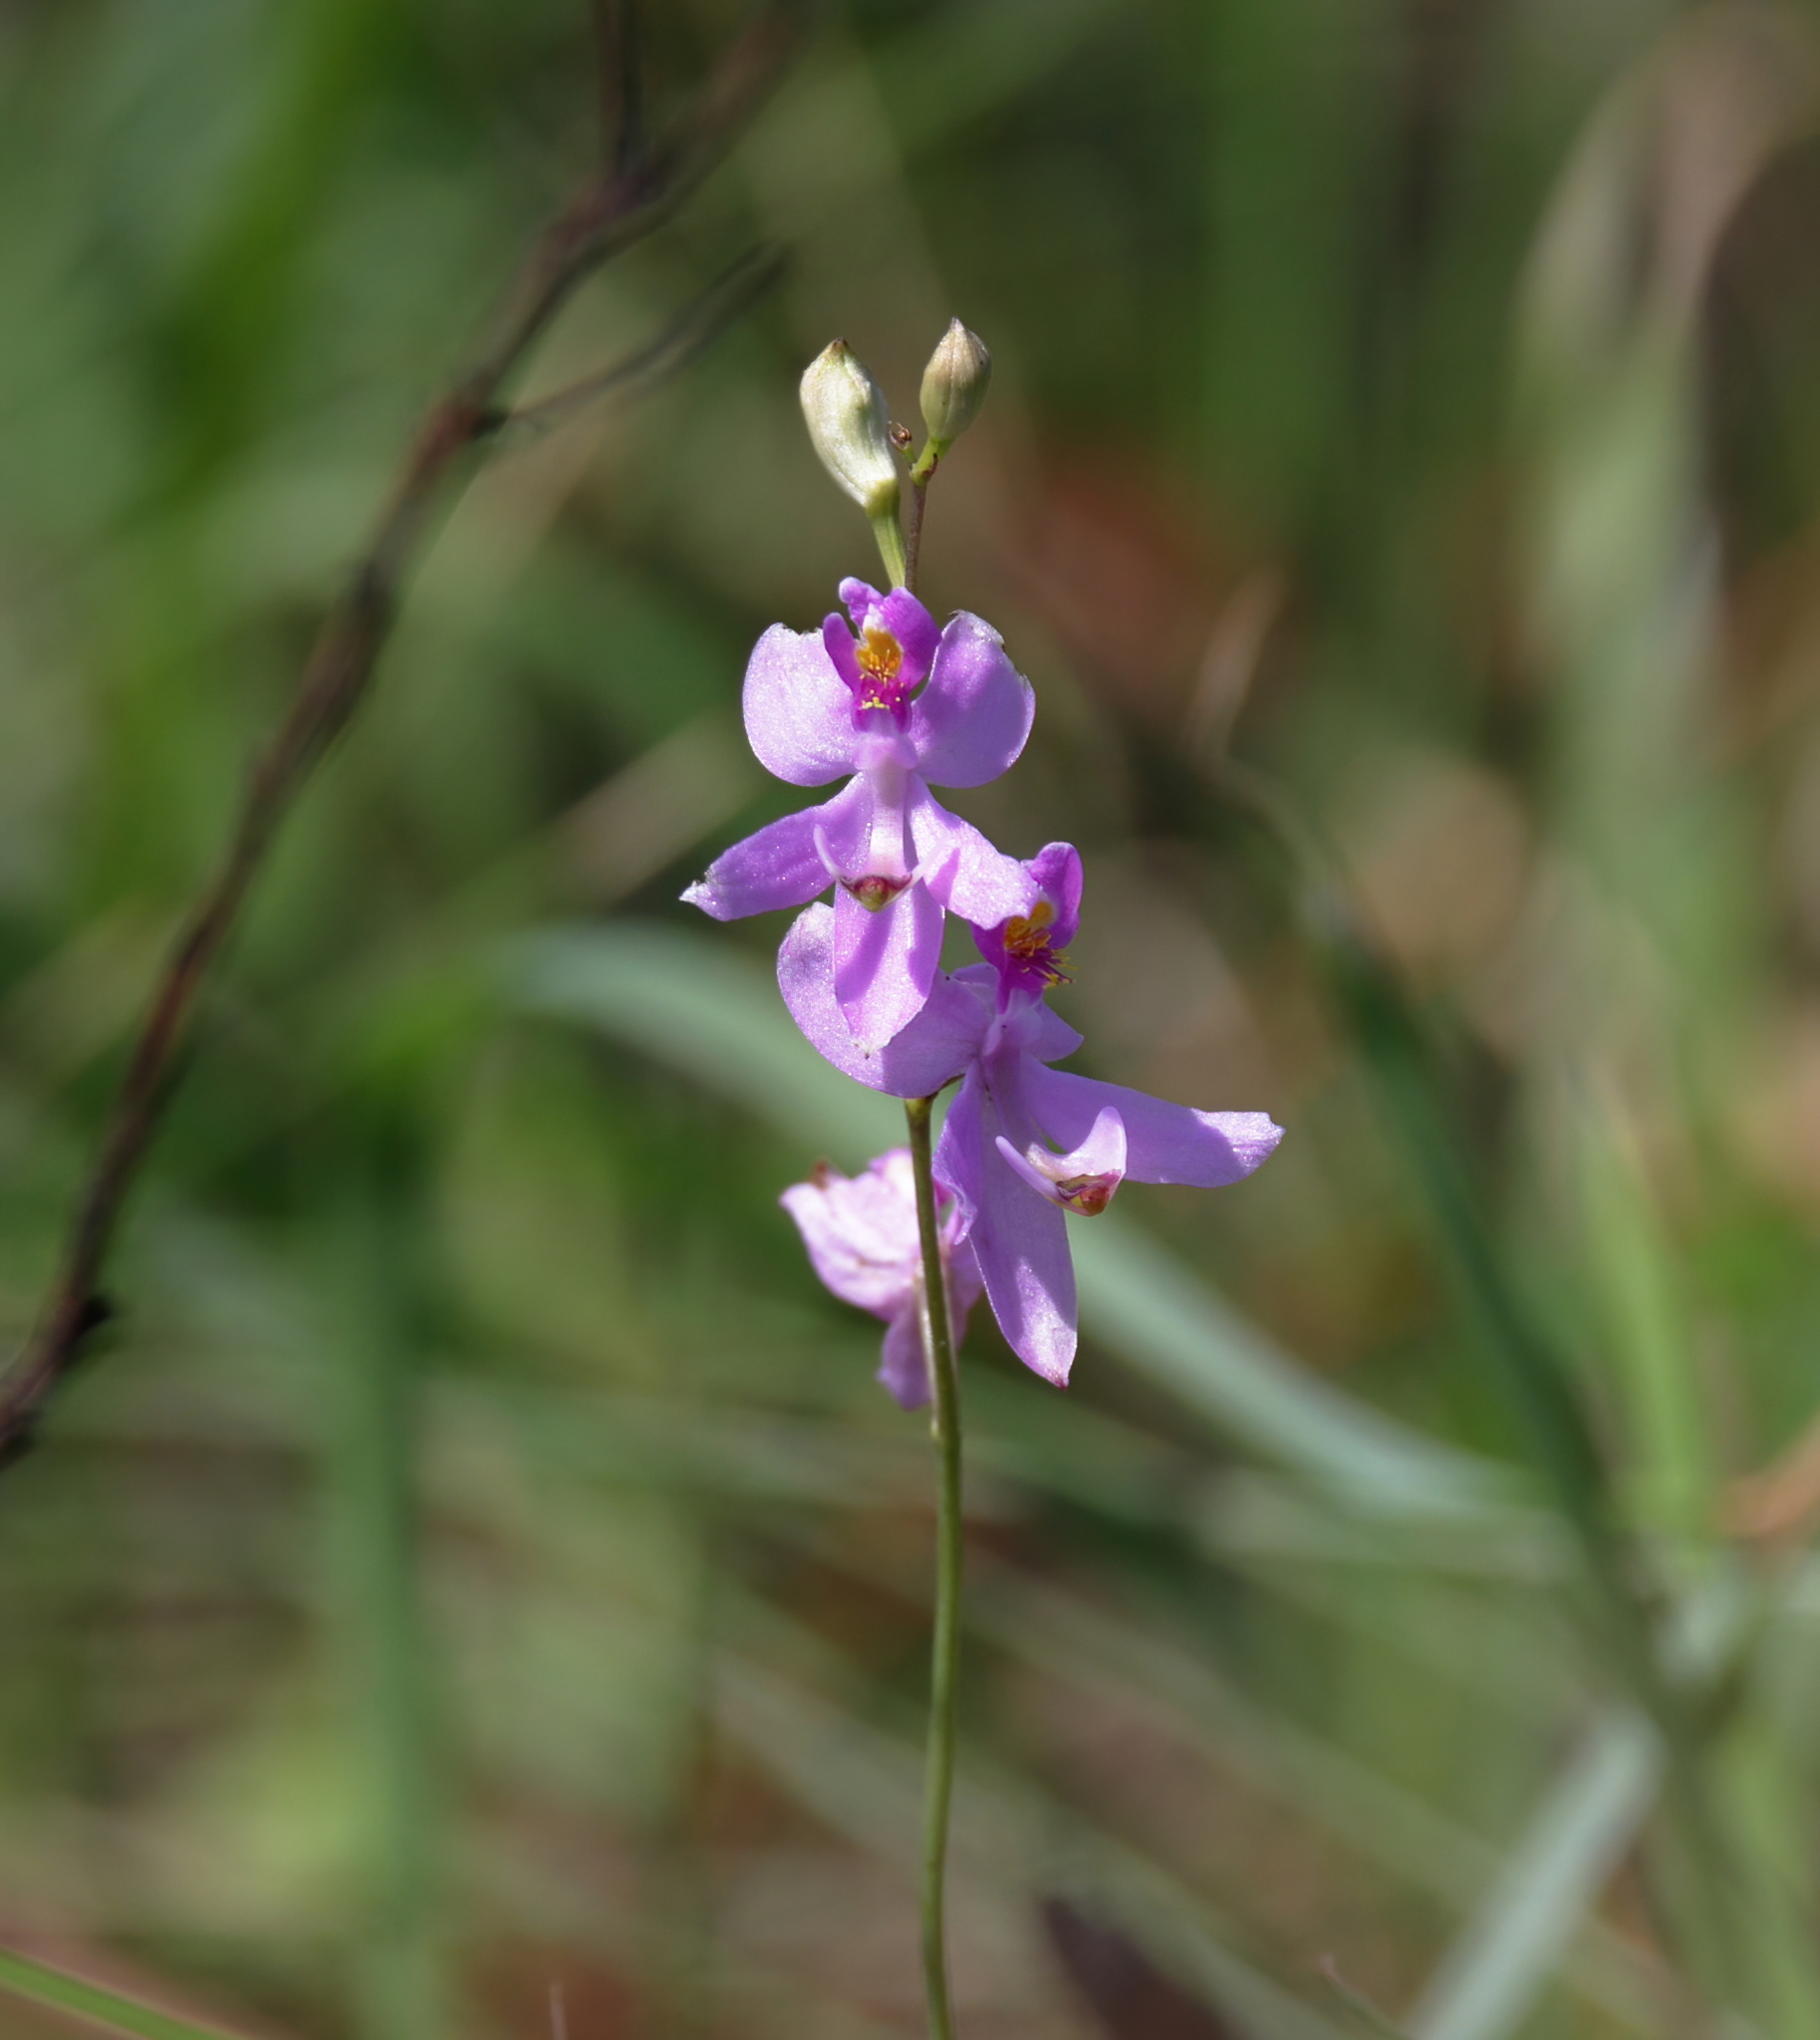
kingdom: Plantae
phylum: Tracheophyta
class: Liliopsida
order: Asparagales
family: Orchidaceae
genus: Calopogon
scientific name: Calopogon pallidus
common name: Pale grasspink
